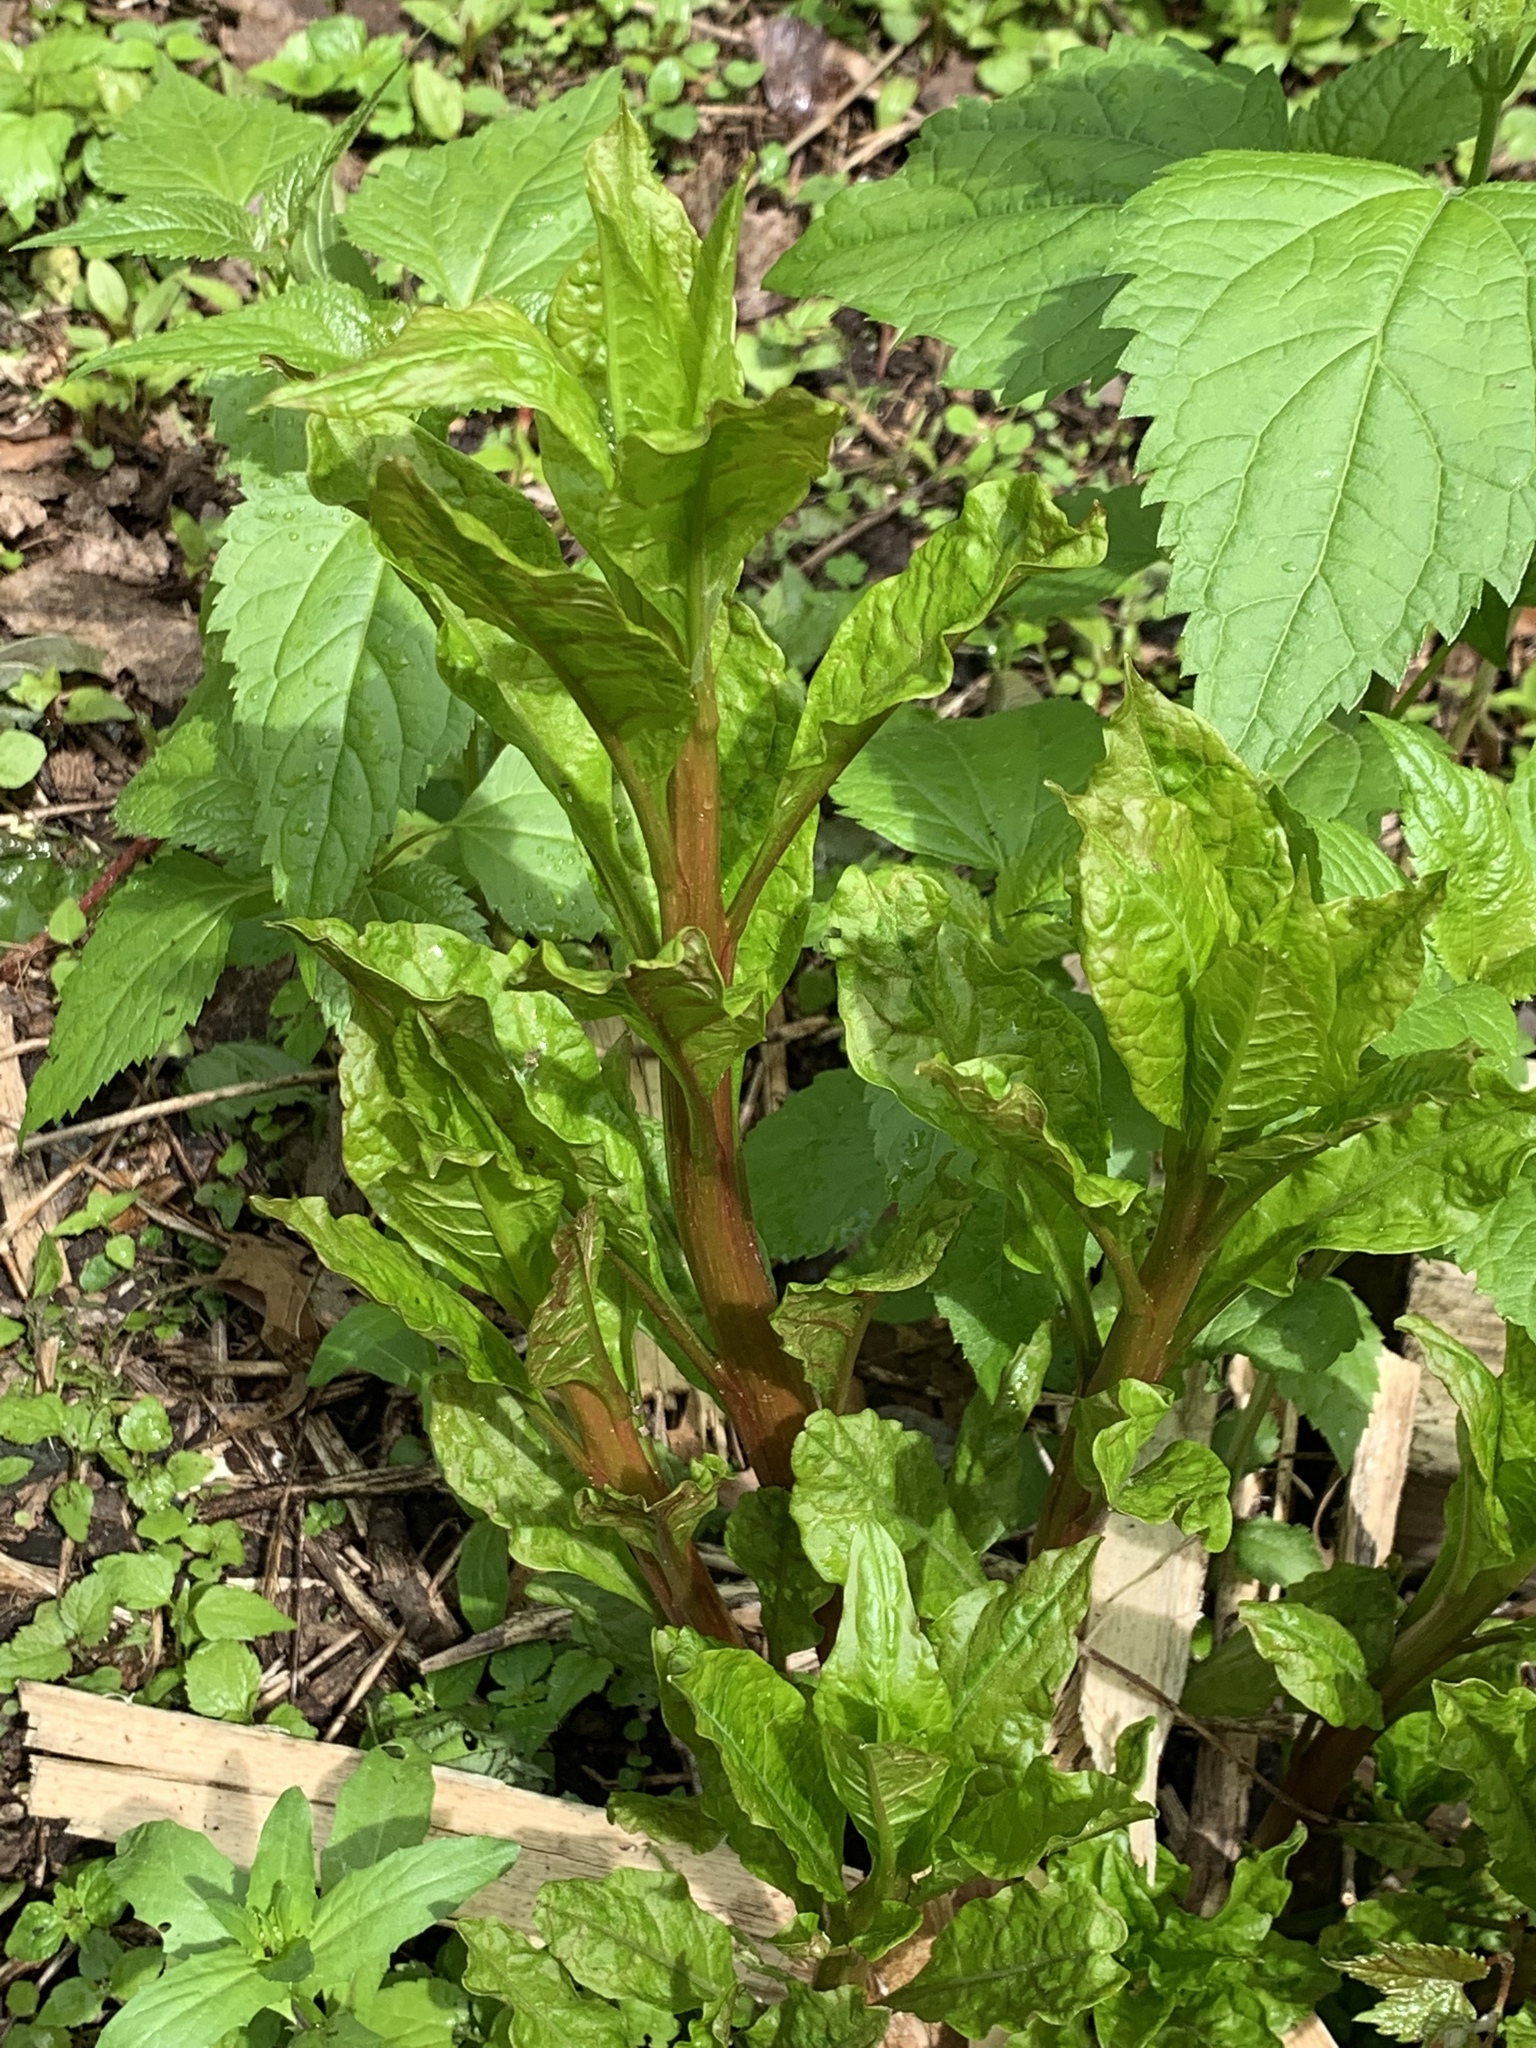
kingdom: Plantae
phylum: Tracheophyta
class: Magnoliopsida
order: Caryophyllales
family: Phytolaccaceae
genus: Phytolacca
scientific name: Phytolacca americana
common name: American pokeweed
